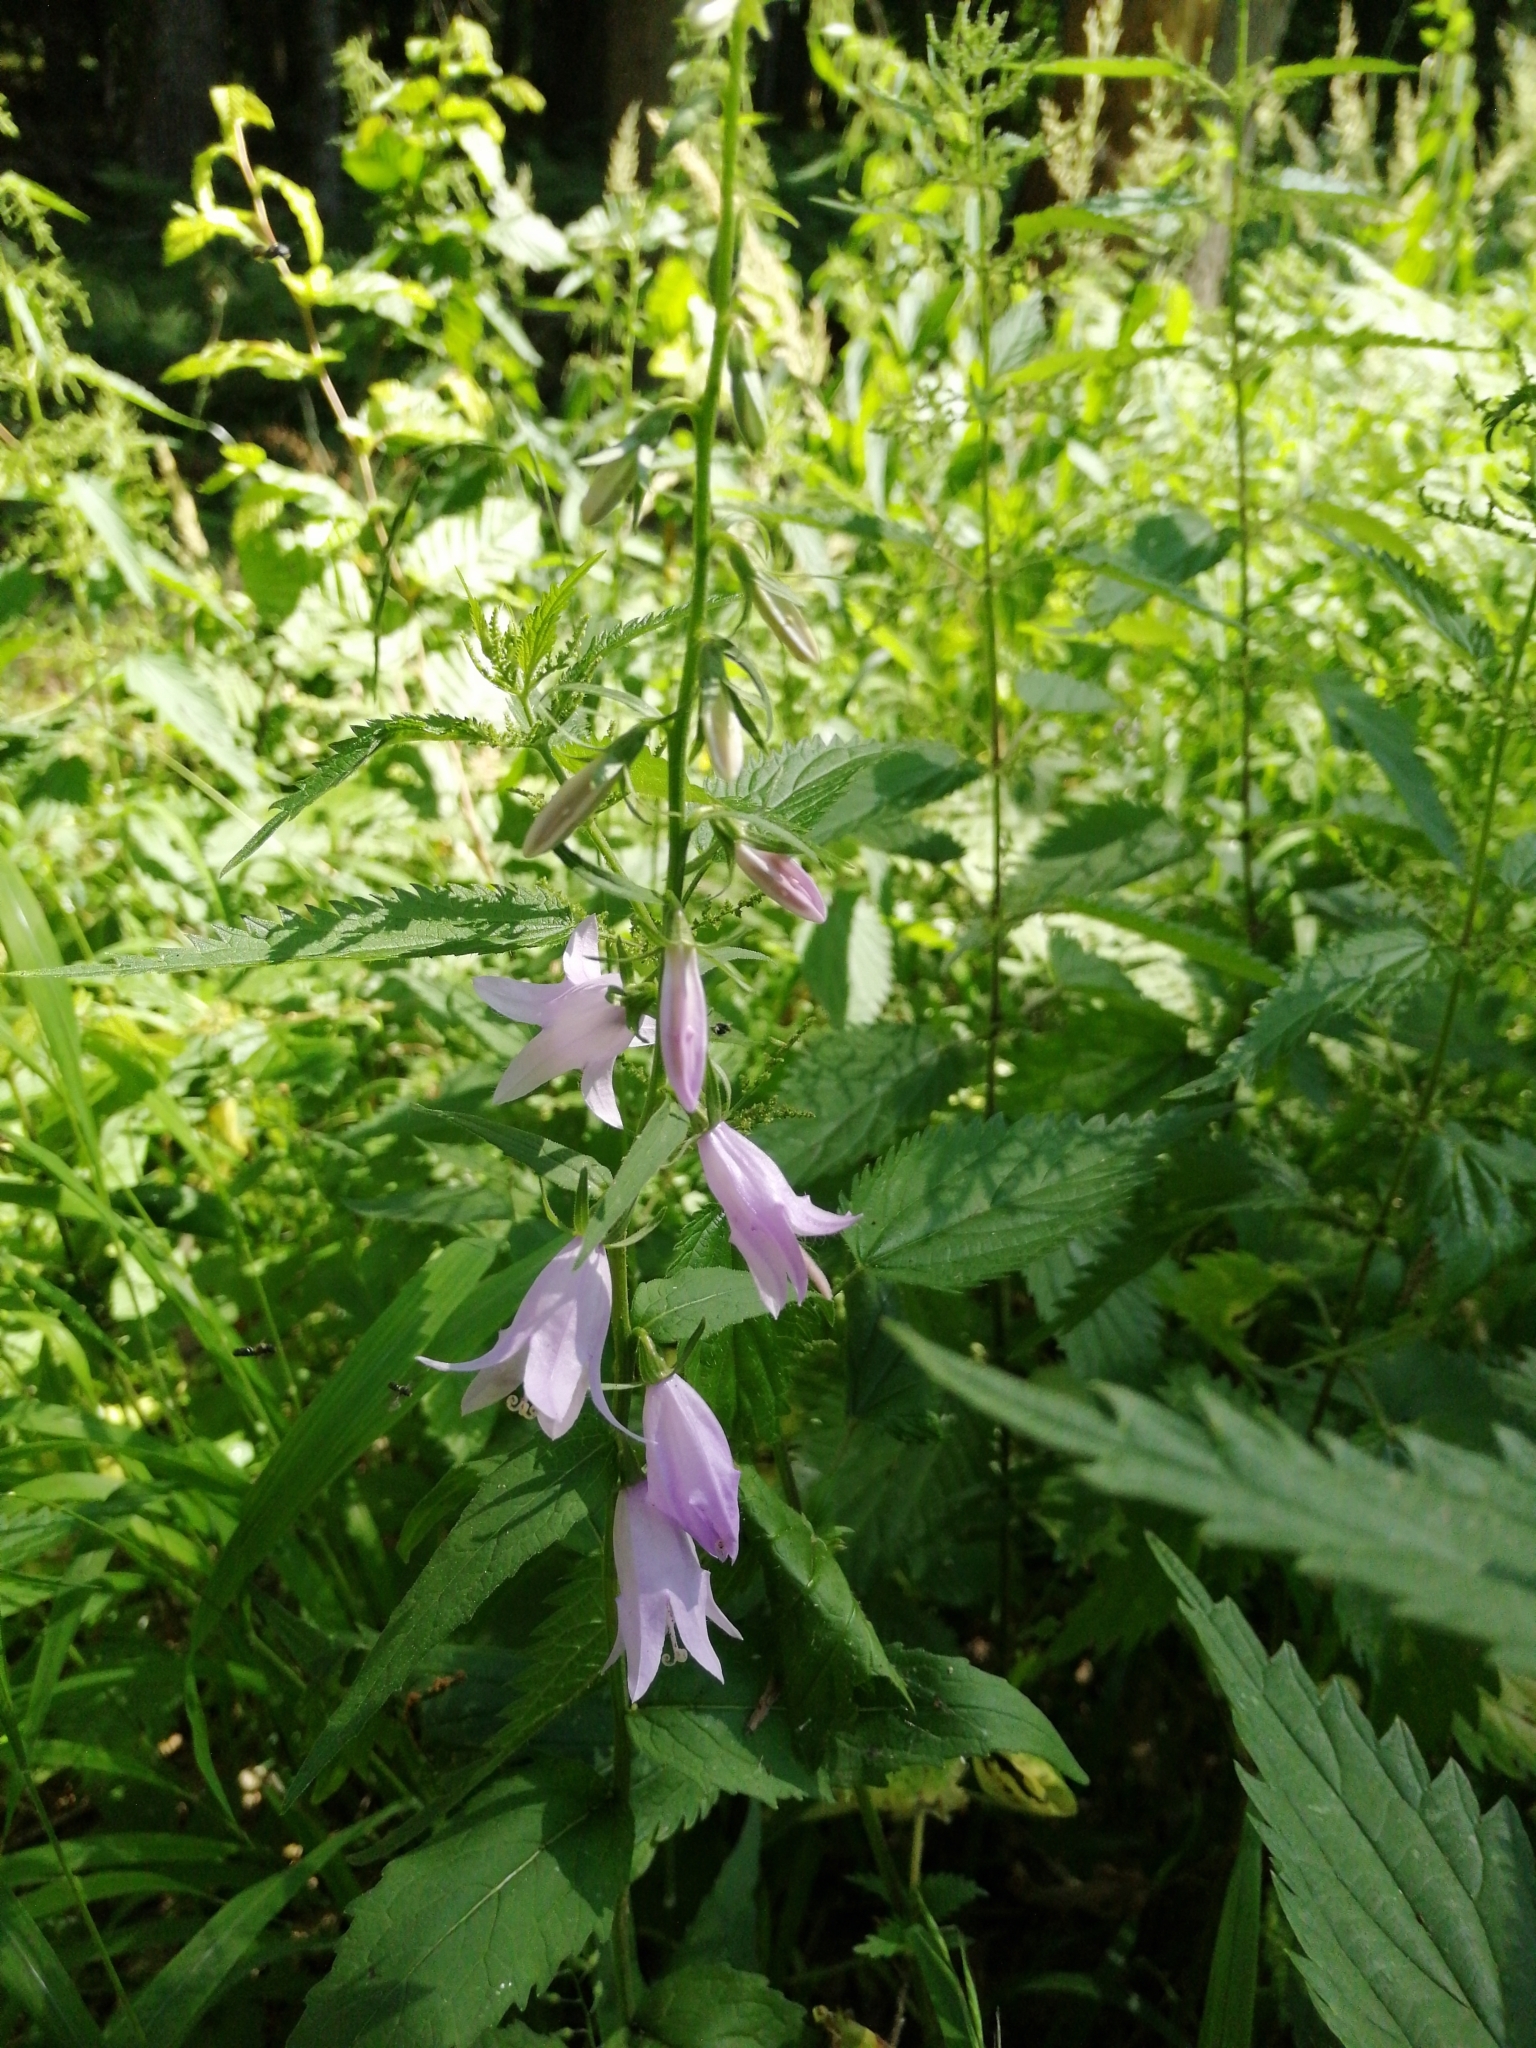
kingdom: Plantae
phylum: Tracheophyta
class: Magnoliopsida
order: Asterales
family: Campanulaceae
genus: Campanula
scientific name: Campanula rapunculoides
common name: Creeping bellflower
